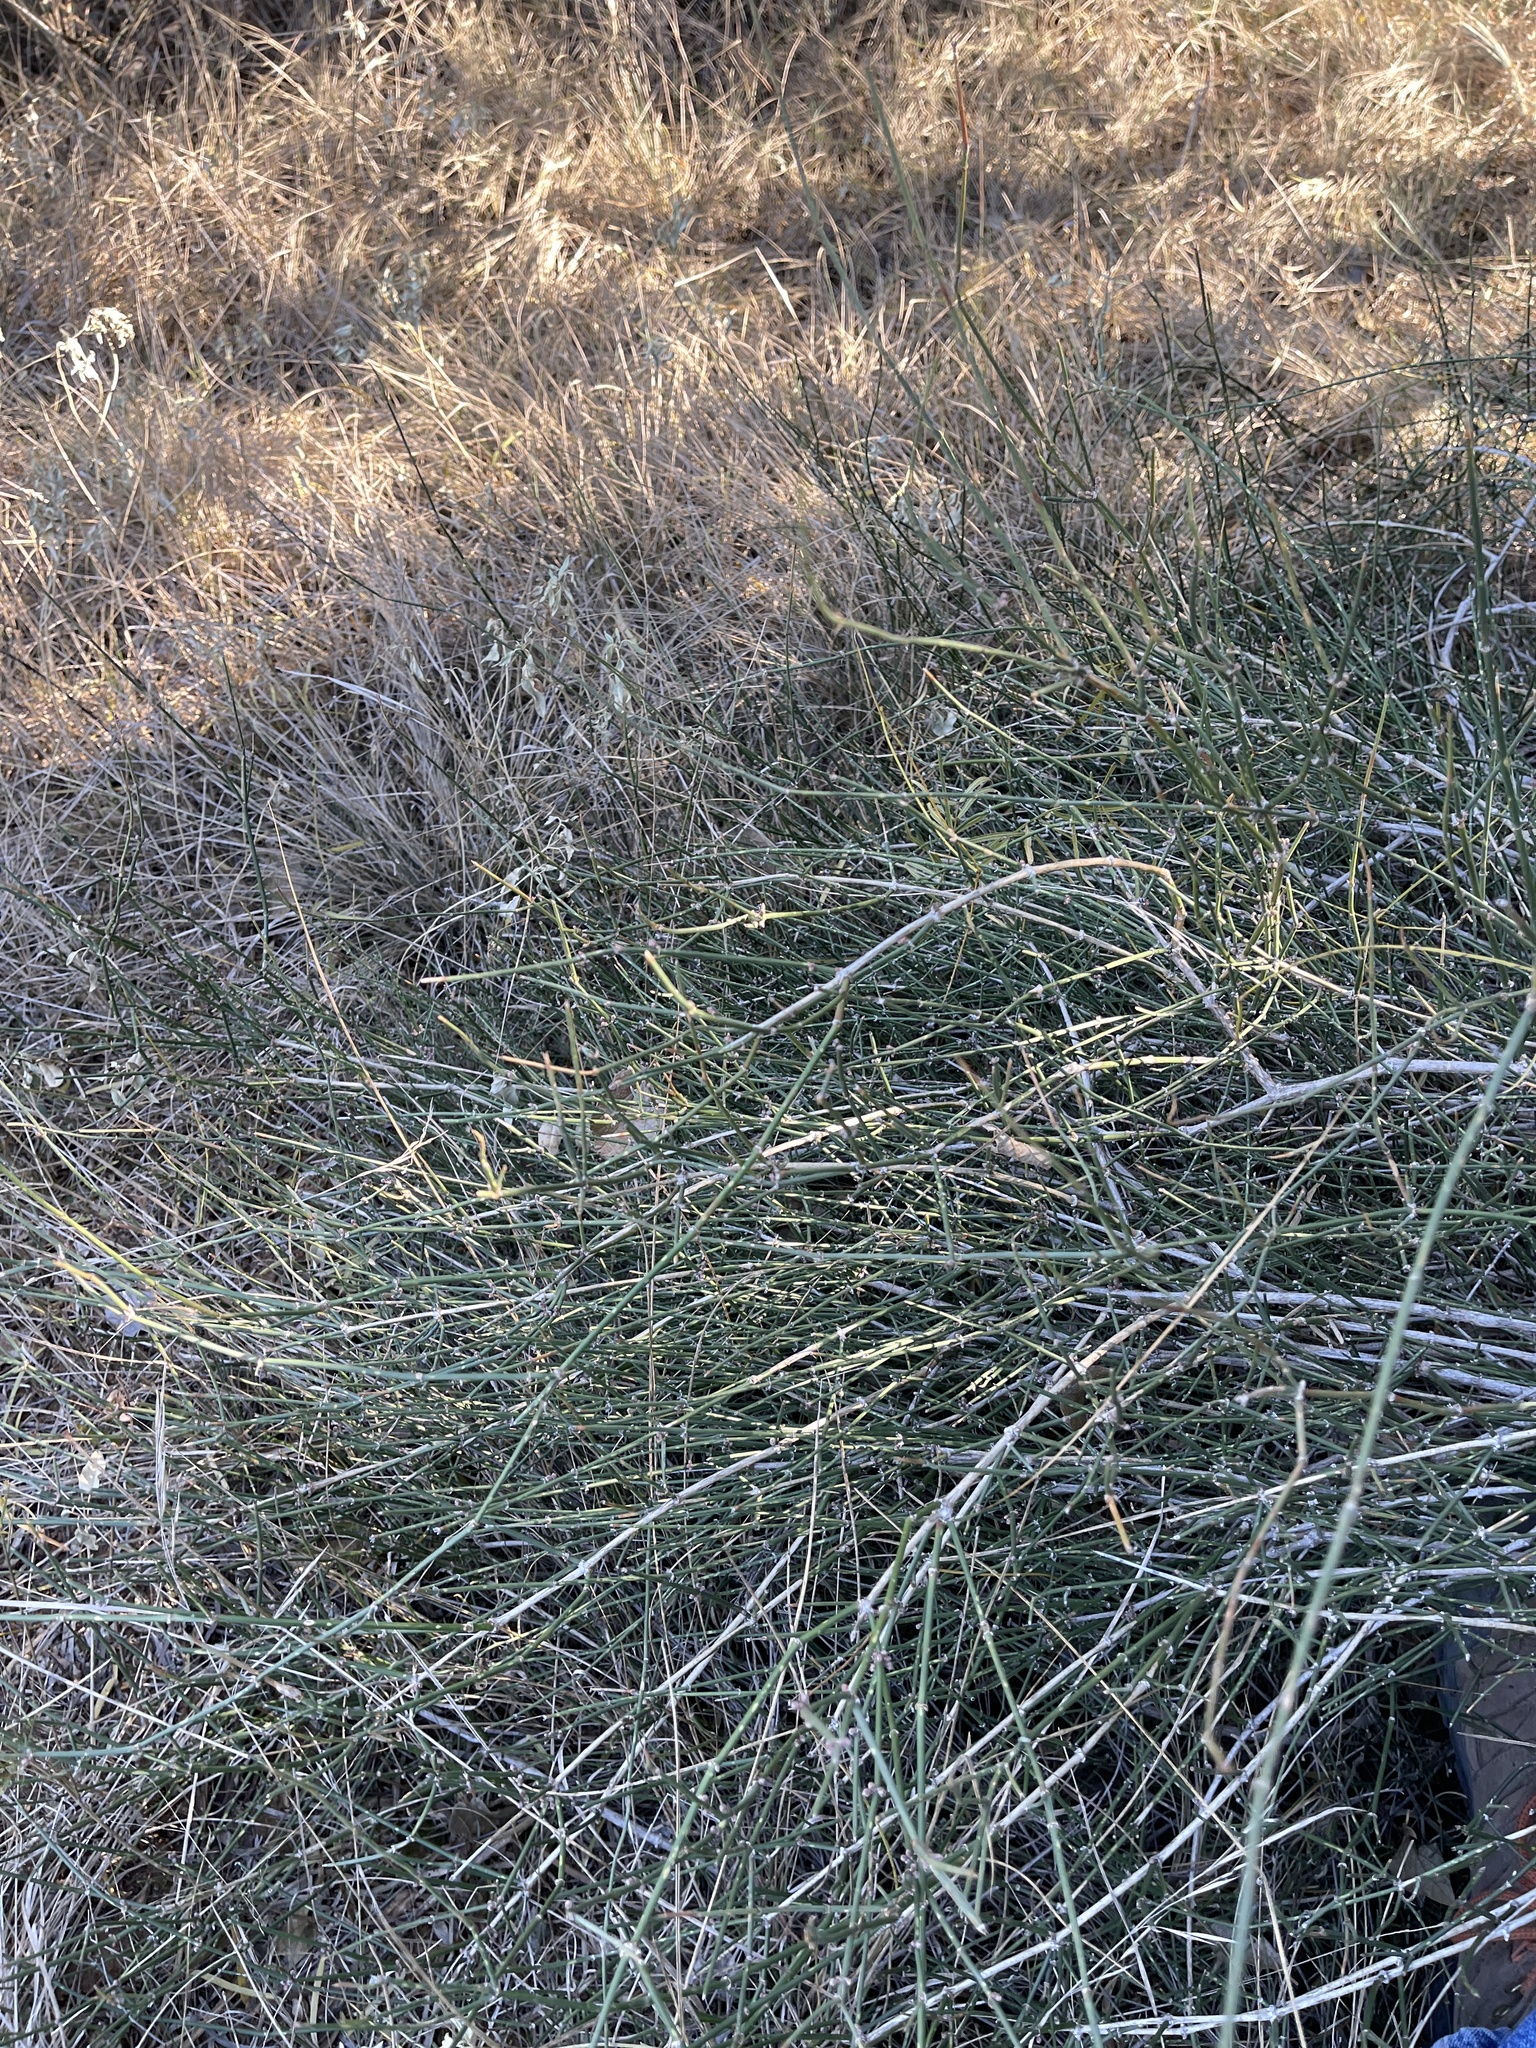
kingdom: Plantae
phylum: Tracheophyta
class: Gnetopsida
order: Ephedrales
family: Ephedraceae
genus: Ephedra
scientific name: Ephedra antisyphilitica
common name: Clipweed
